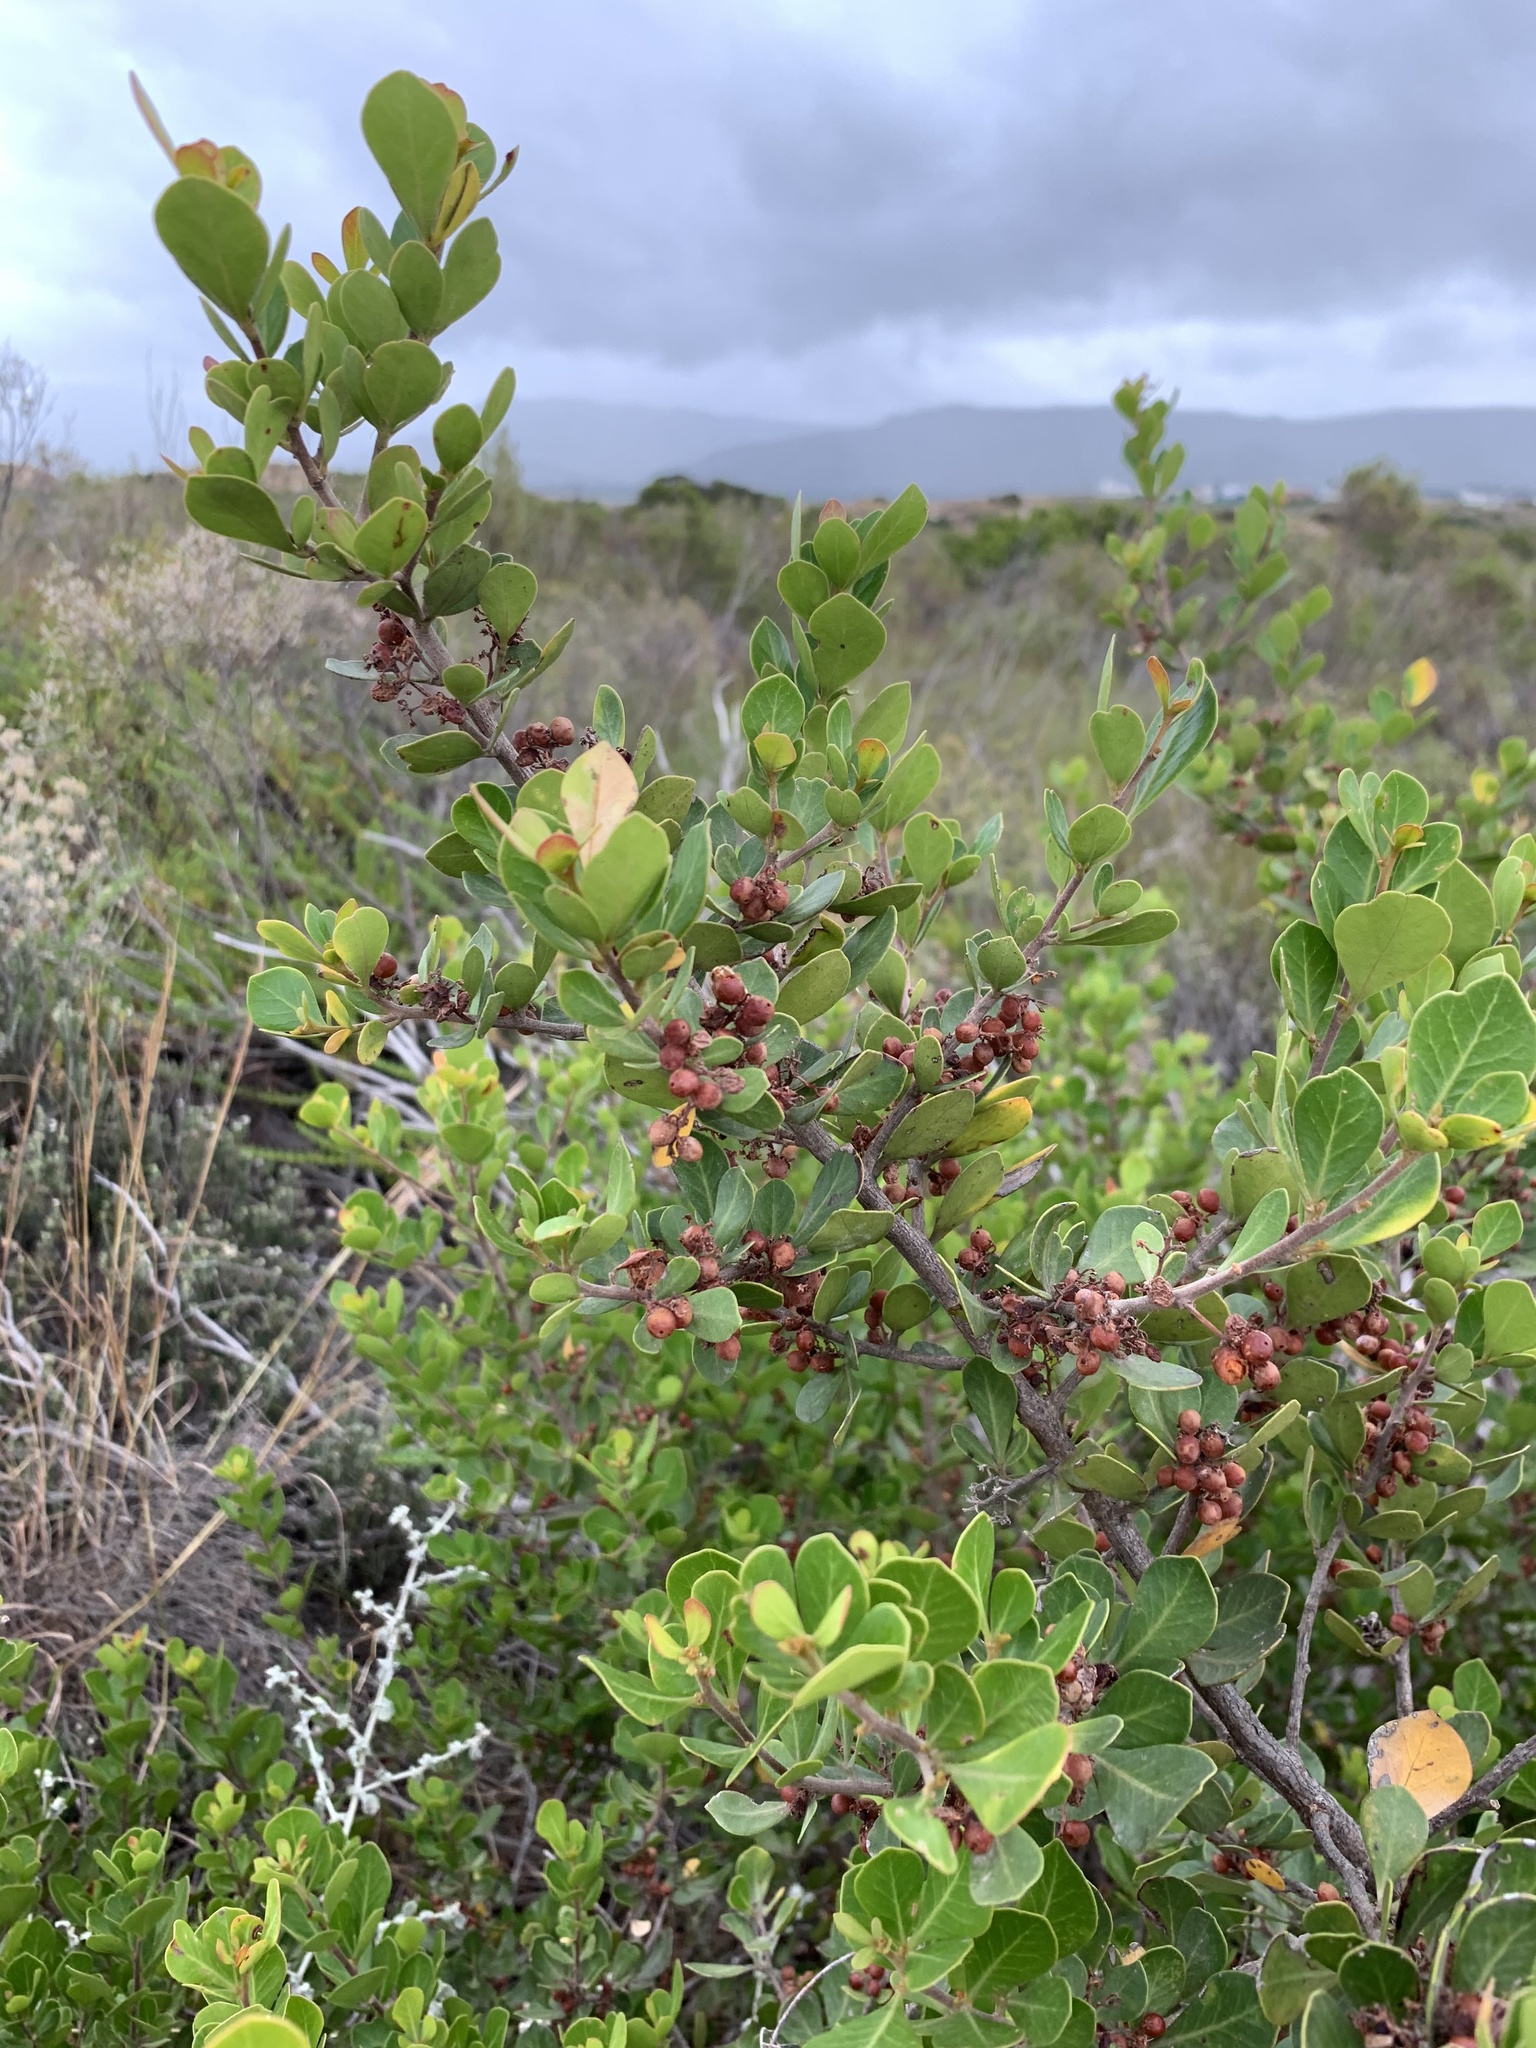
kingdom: Plantae
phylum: Tracheophyta
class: Magnoliopsida
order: Sapindales
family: Anacardiaceae
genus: Searsia
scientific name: Searsia lucida
